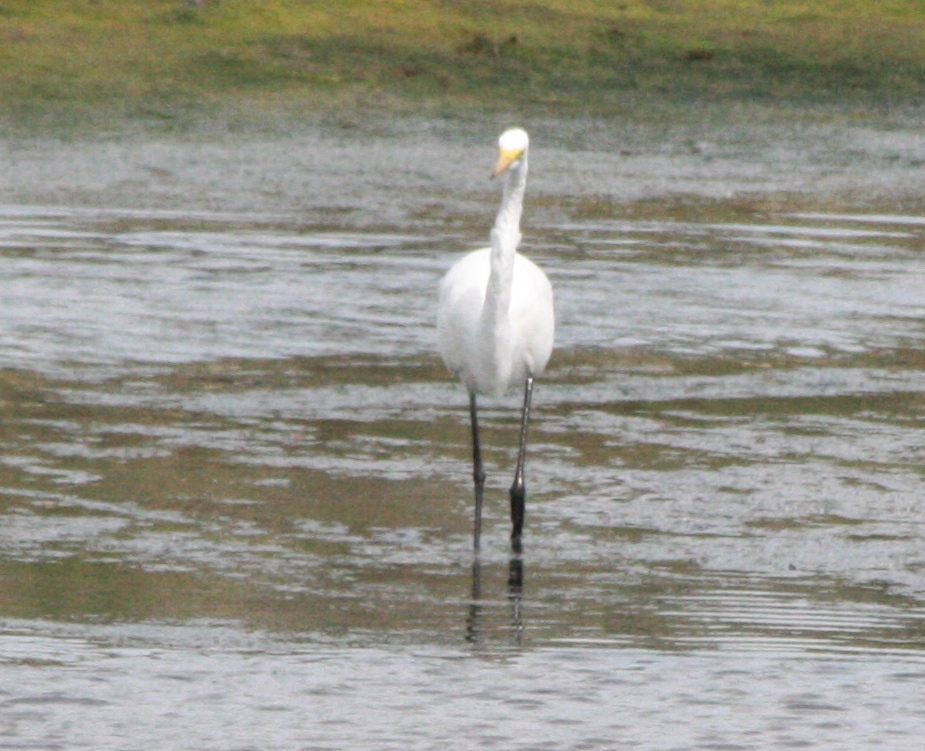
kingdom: Animalia
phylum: Chordata
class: Aves
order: Pelecaniformes
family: Ardeidae
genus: Ardea
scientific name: Ardea alba
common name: Great egret
